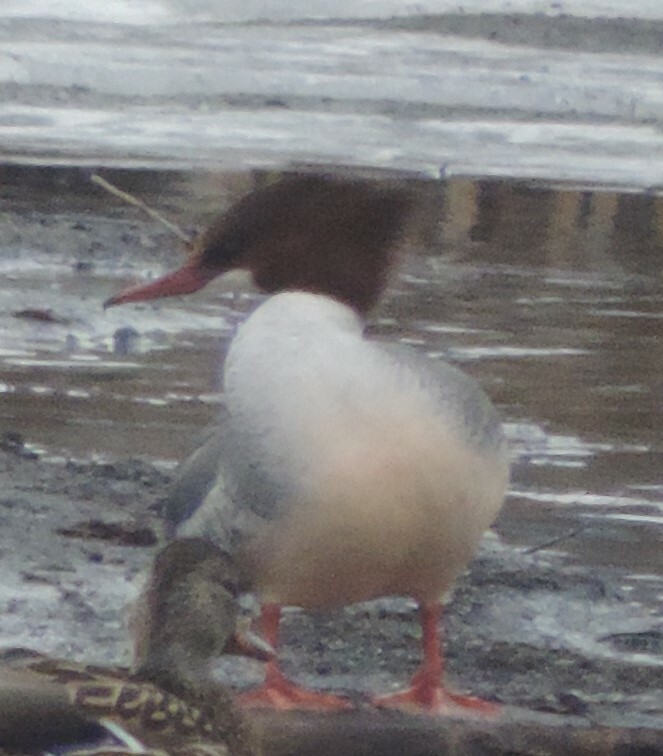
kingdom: Animalia
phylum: Chordata
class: Aves
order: Anseriformes
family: Anatidae
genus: Mergus
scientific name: Mergus merganser
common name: Common merganser
